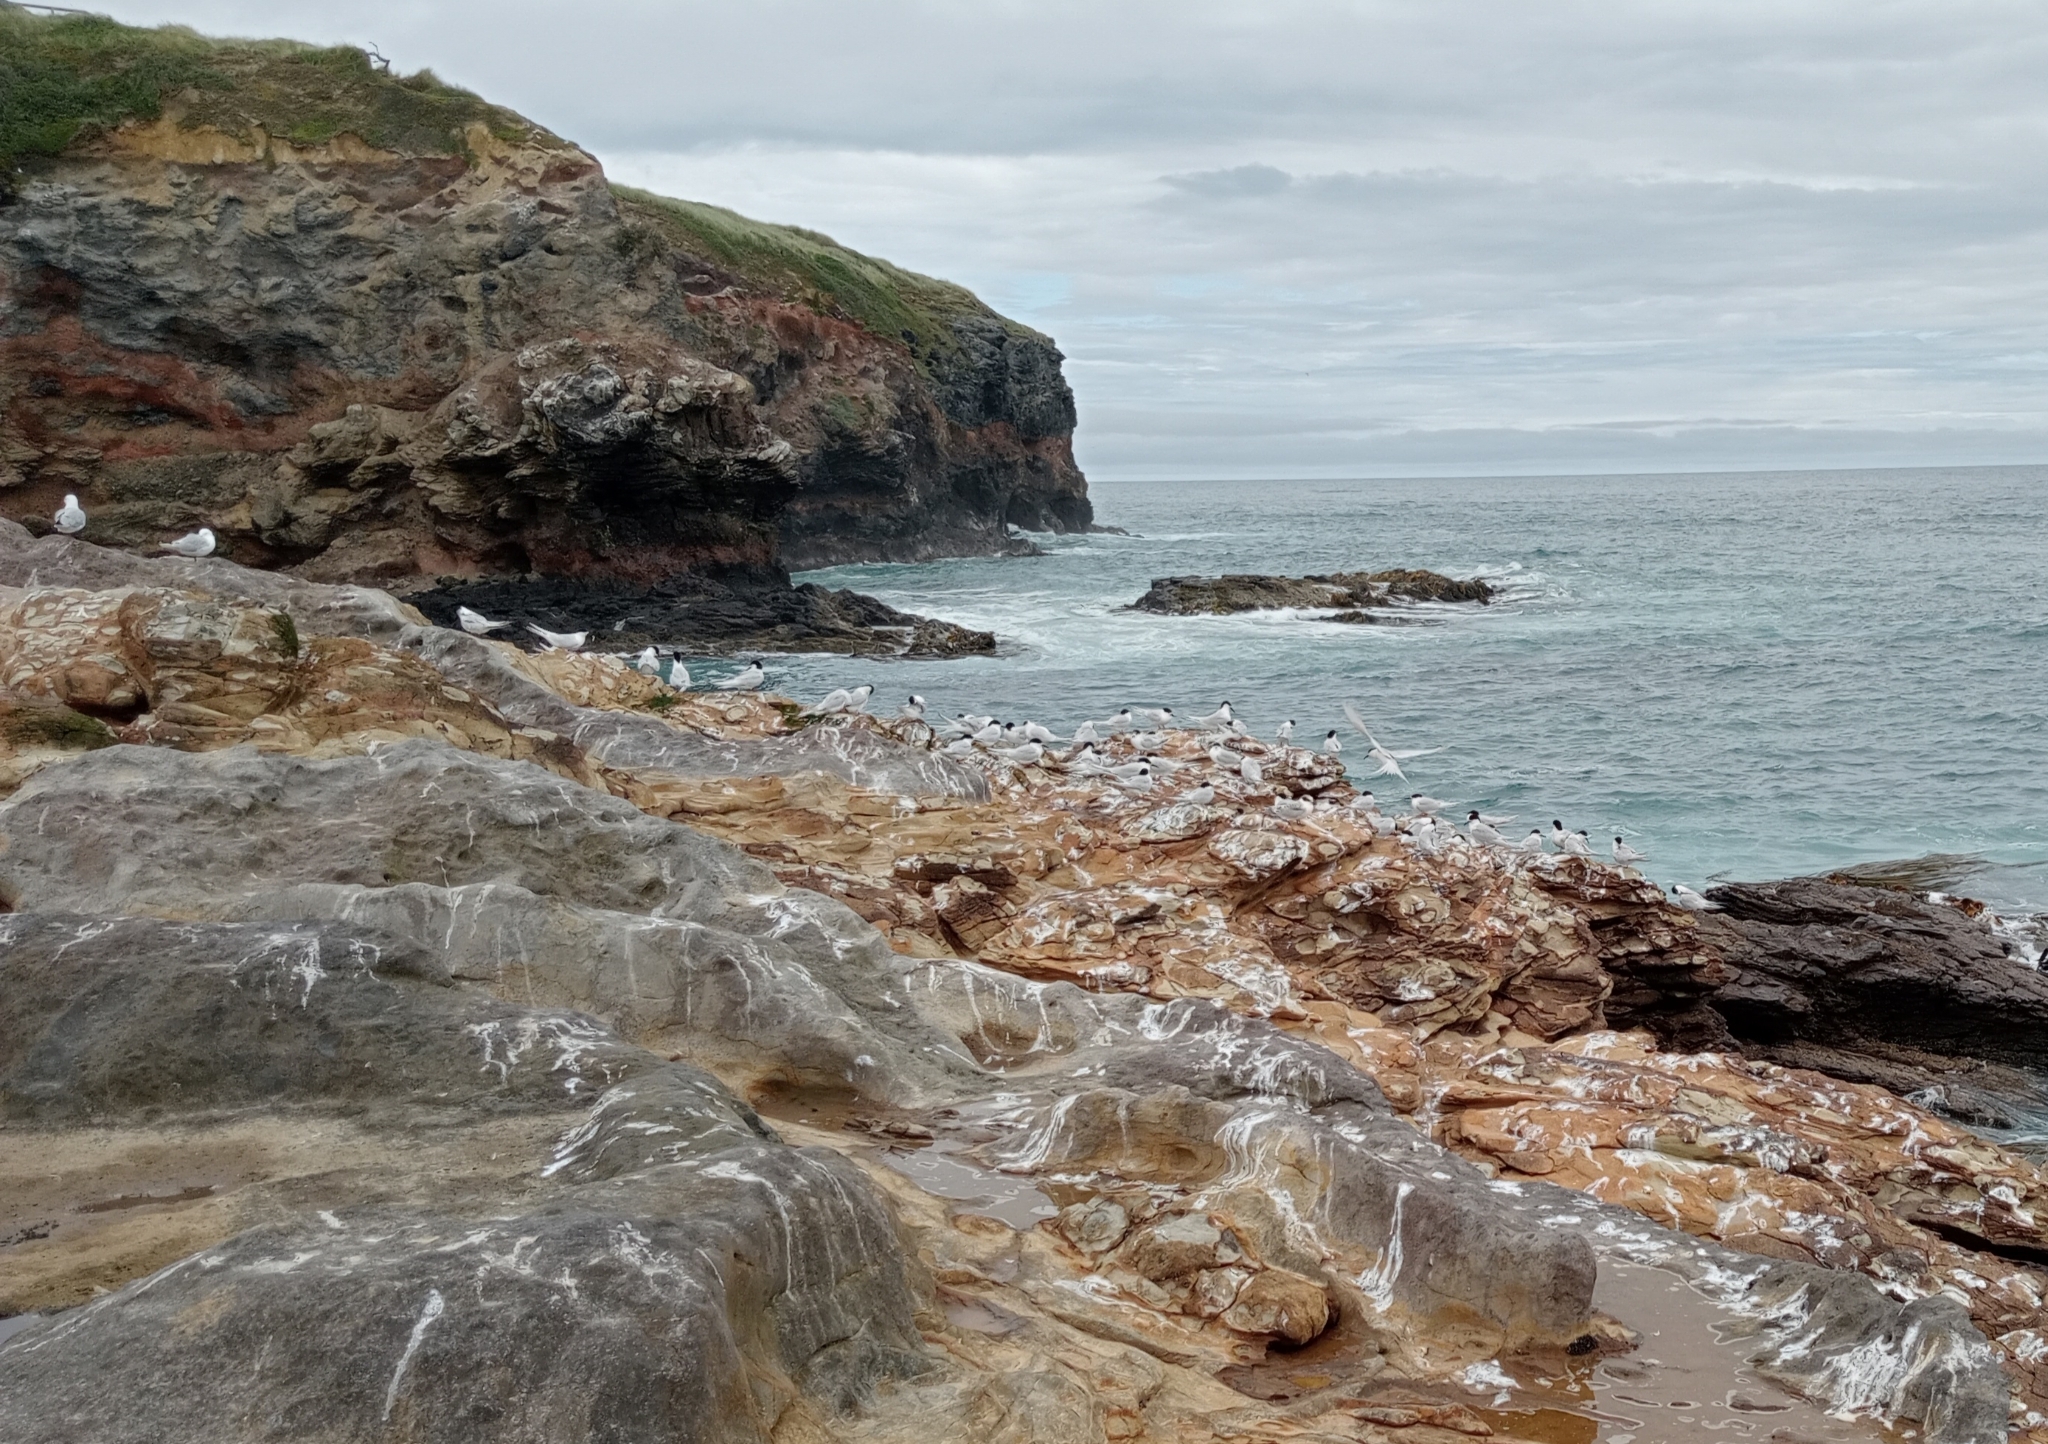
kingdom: Animalia
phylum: Chordata
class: Aves
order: Charadriiformes
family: Laridae
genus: Sterna
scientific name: Sterna striata
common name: White-fronted tern
